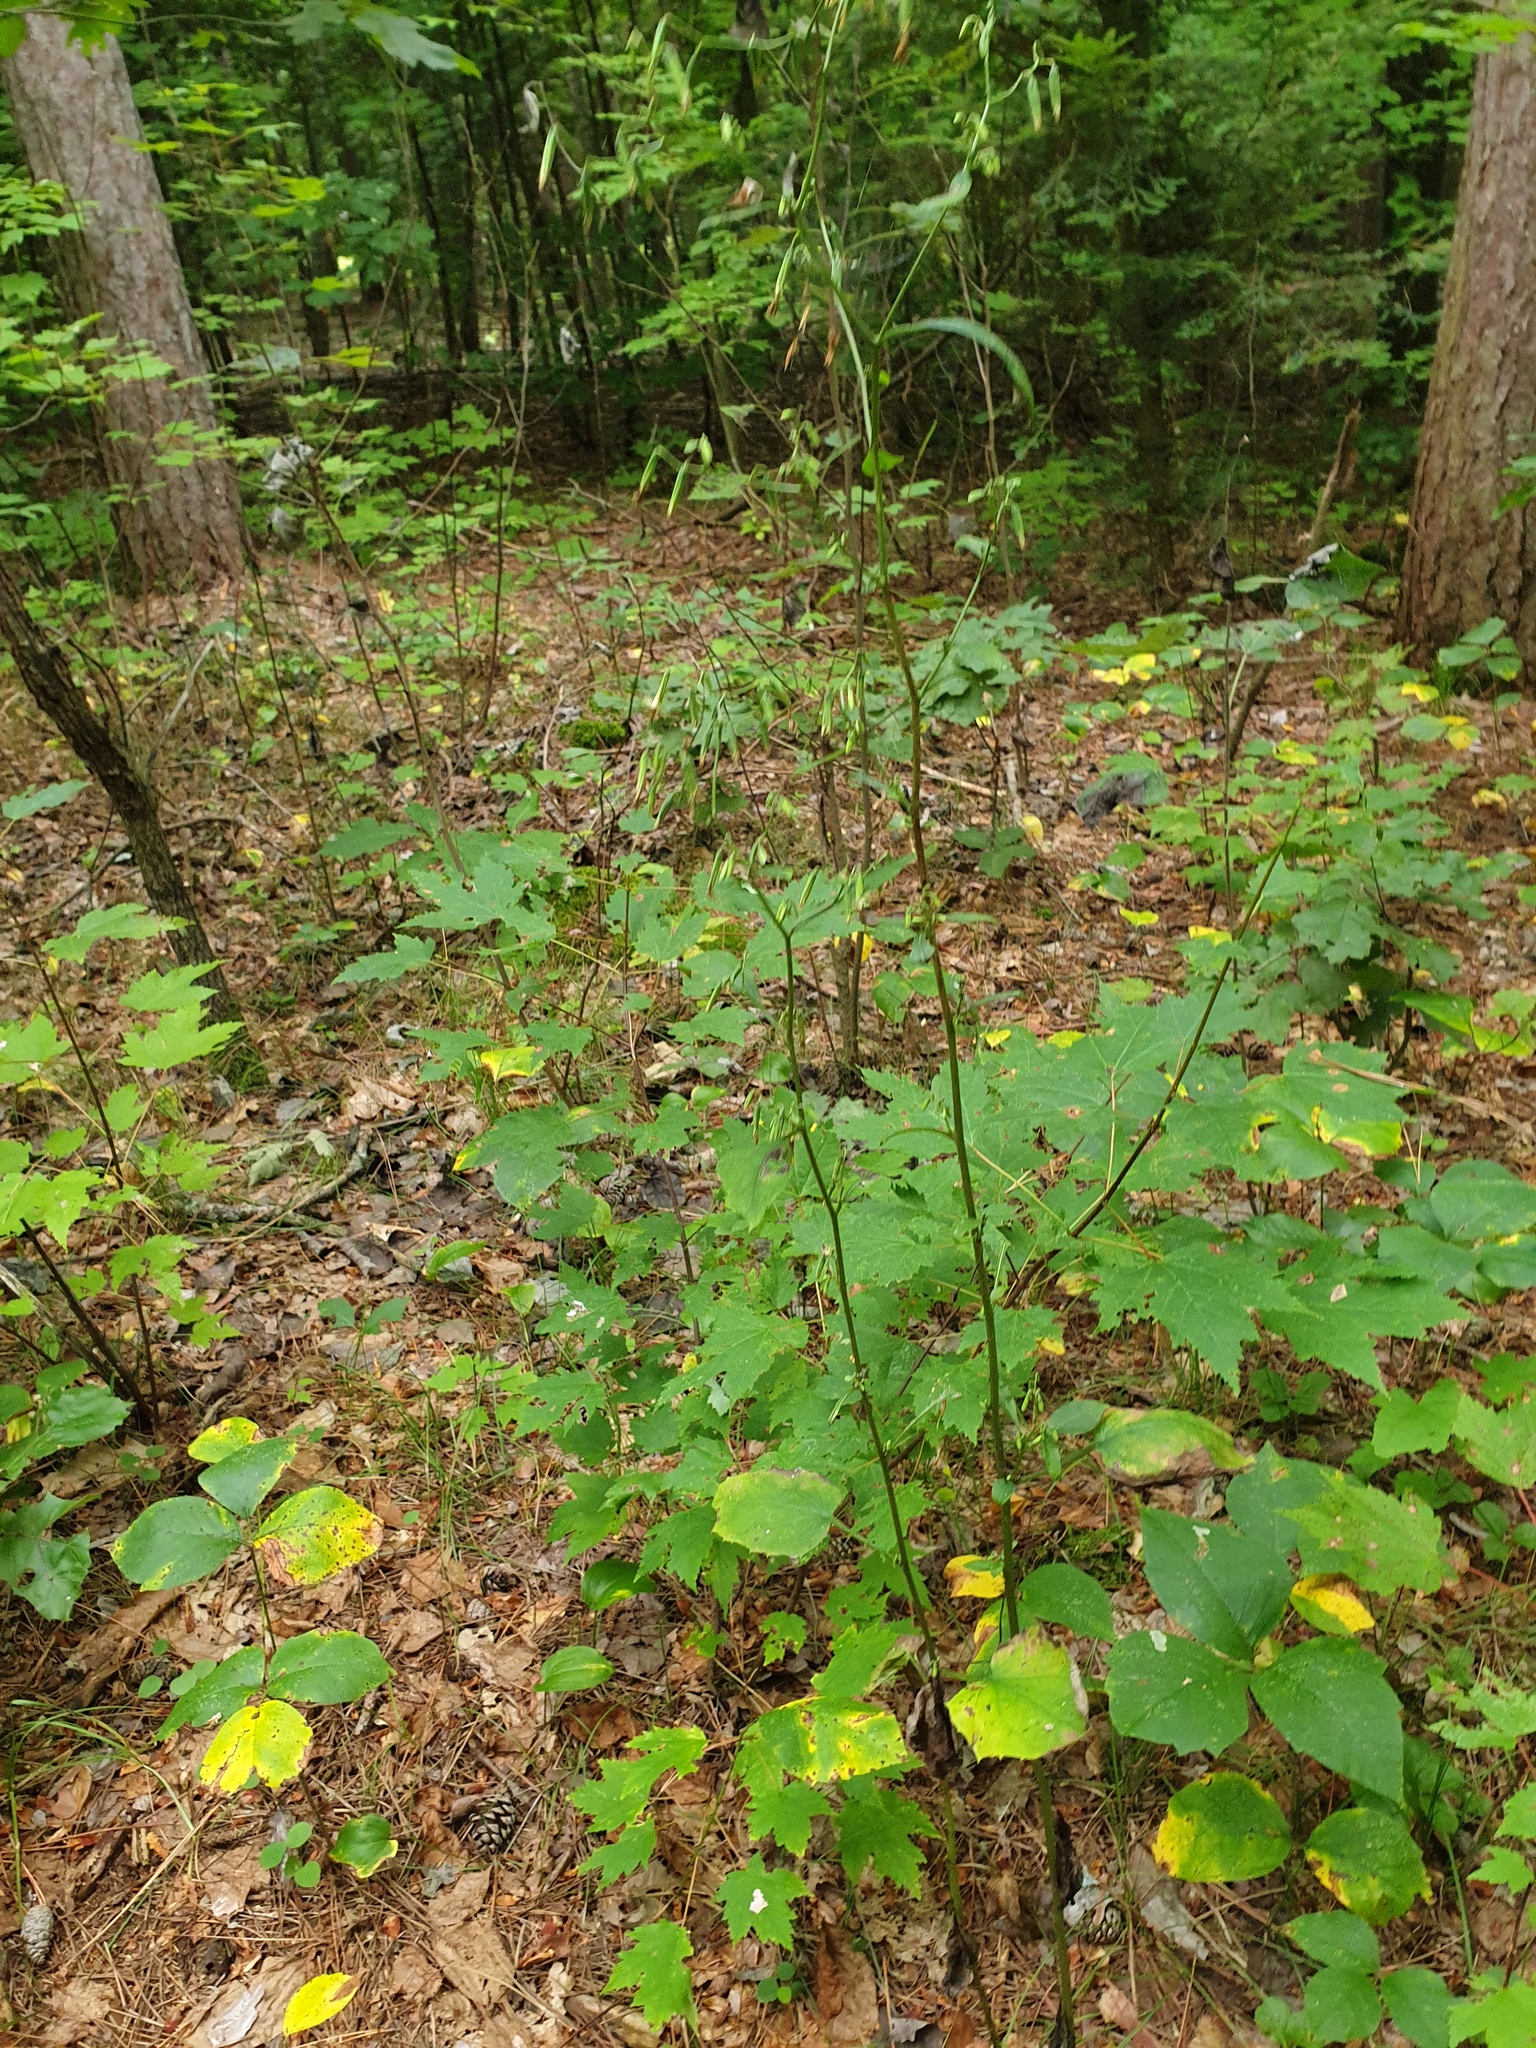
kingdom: Plantae
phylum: Tracheophyta
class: Magnoliopsida
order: Asterales
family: Asteraceae
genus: Nabalus
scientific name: Nabalus altissima
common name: Tall rattlesnakeroot
